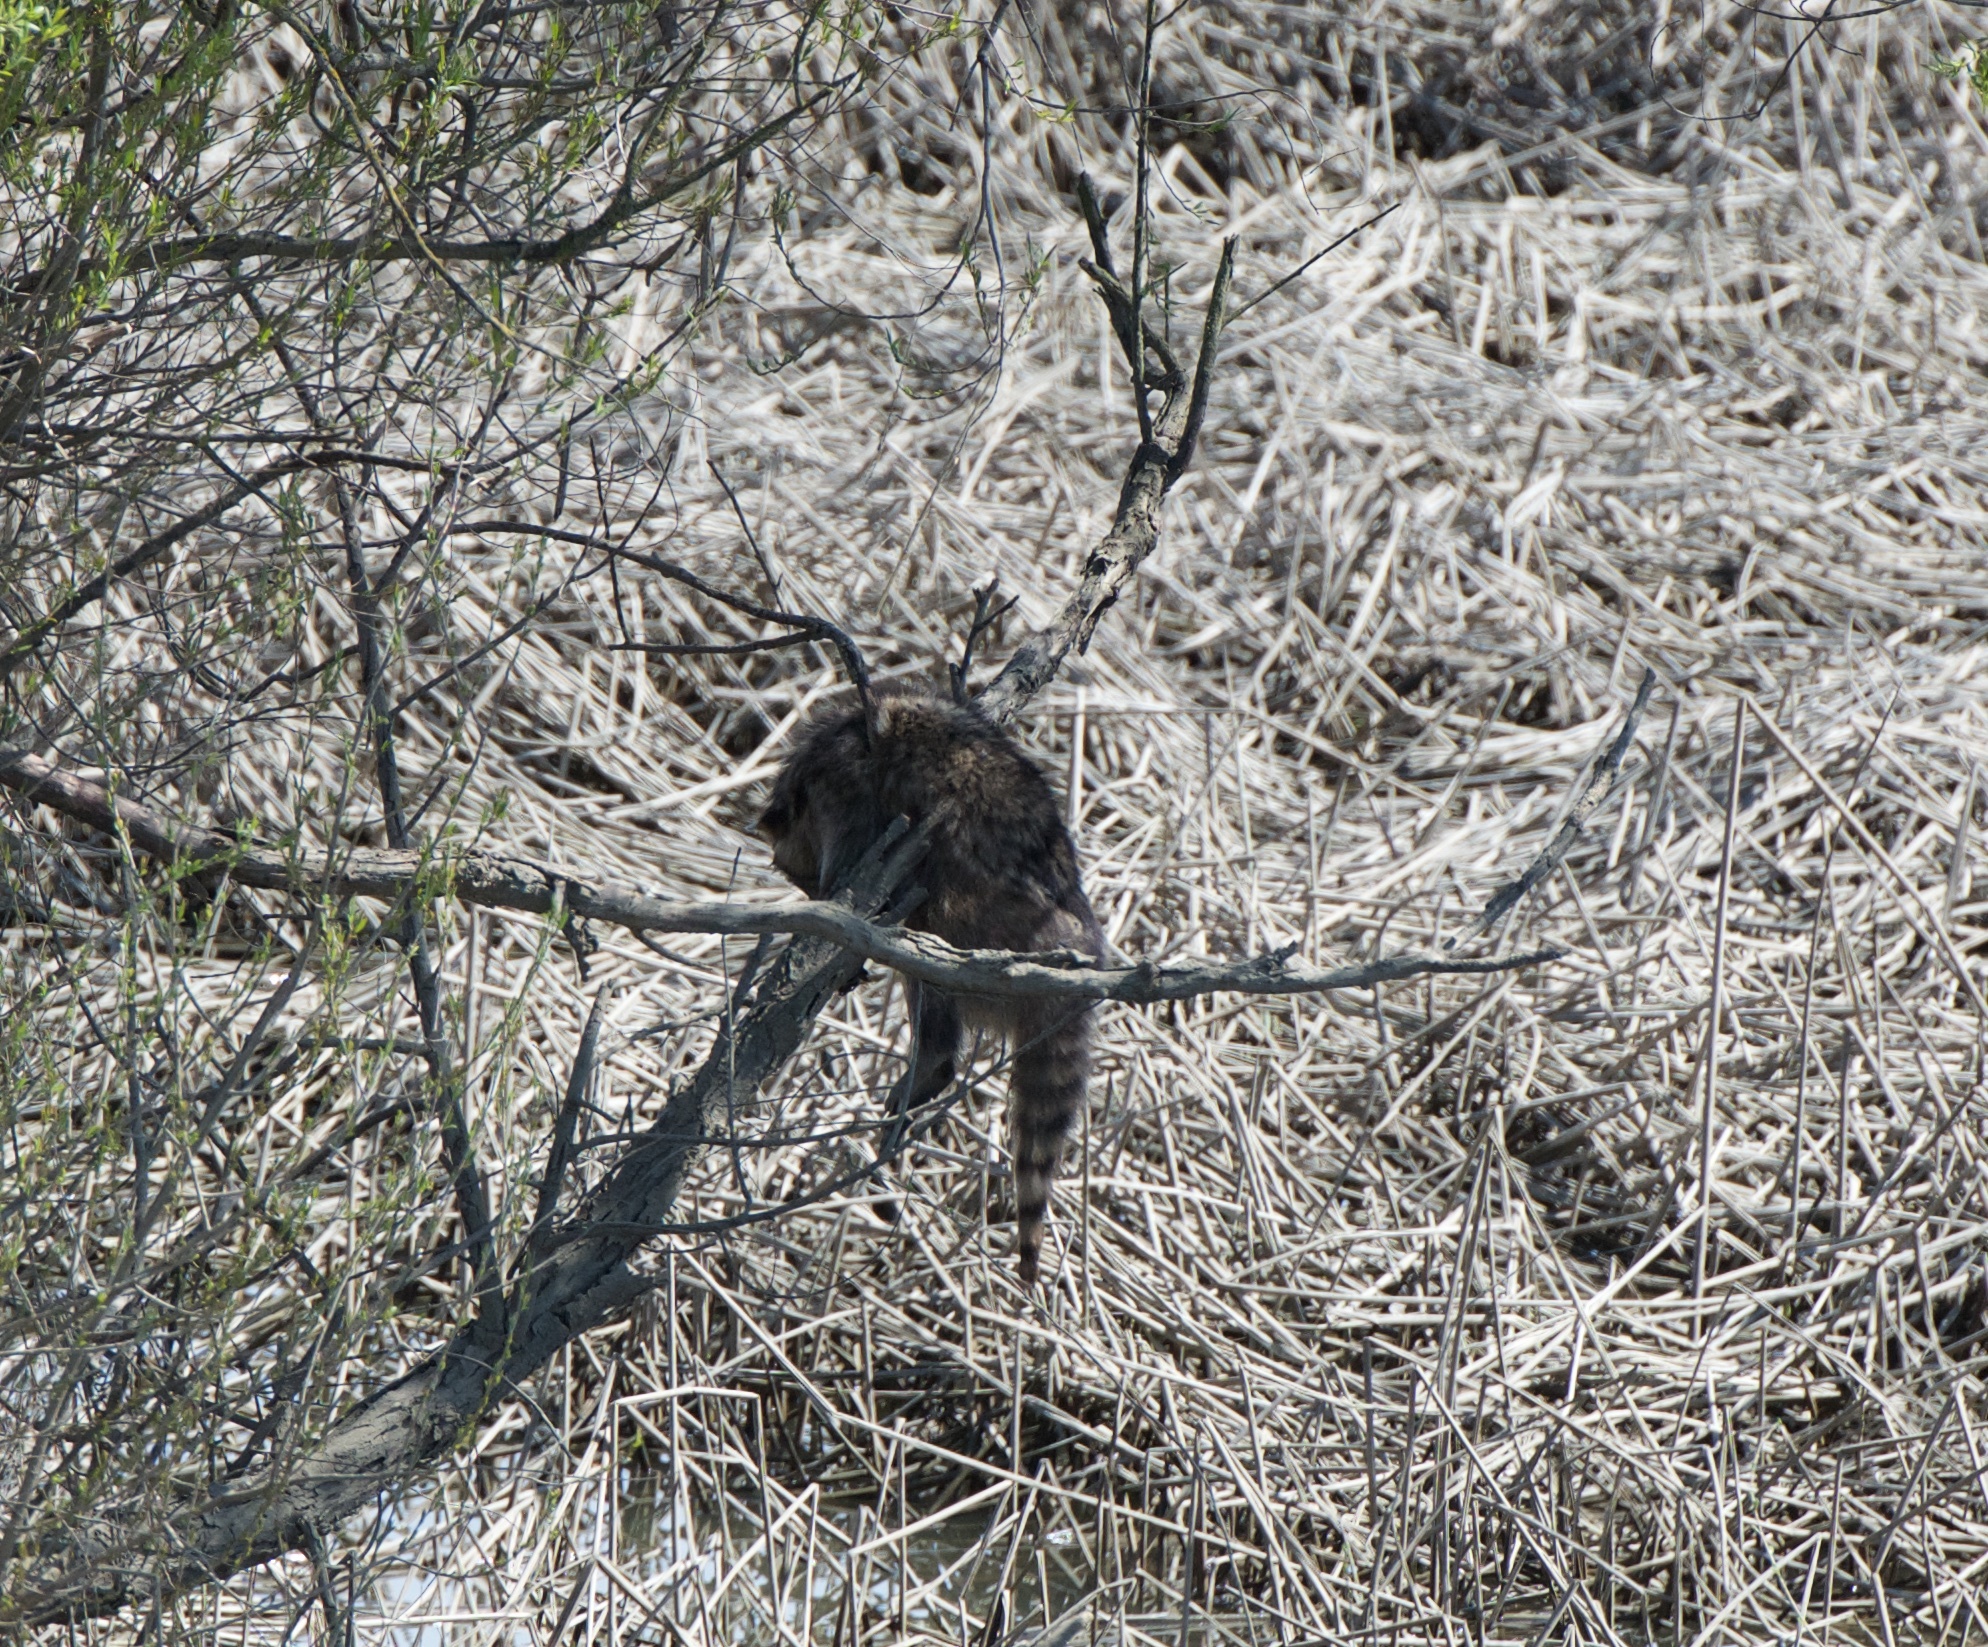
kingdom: Animalia
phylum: Chordata
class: Mammalia
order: Carnivora
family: Procyonidae
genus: Procyon
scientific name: Procyon lotor
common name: Raccoon
